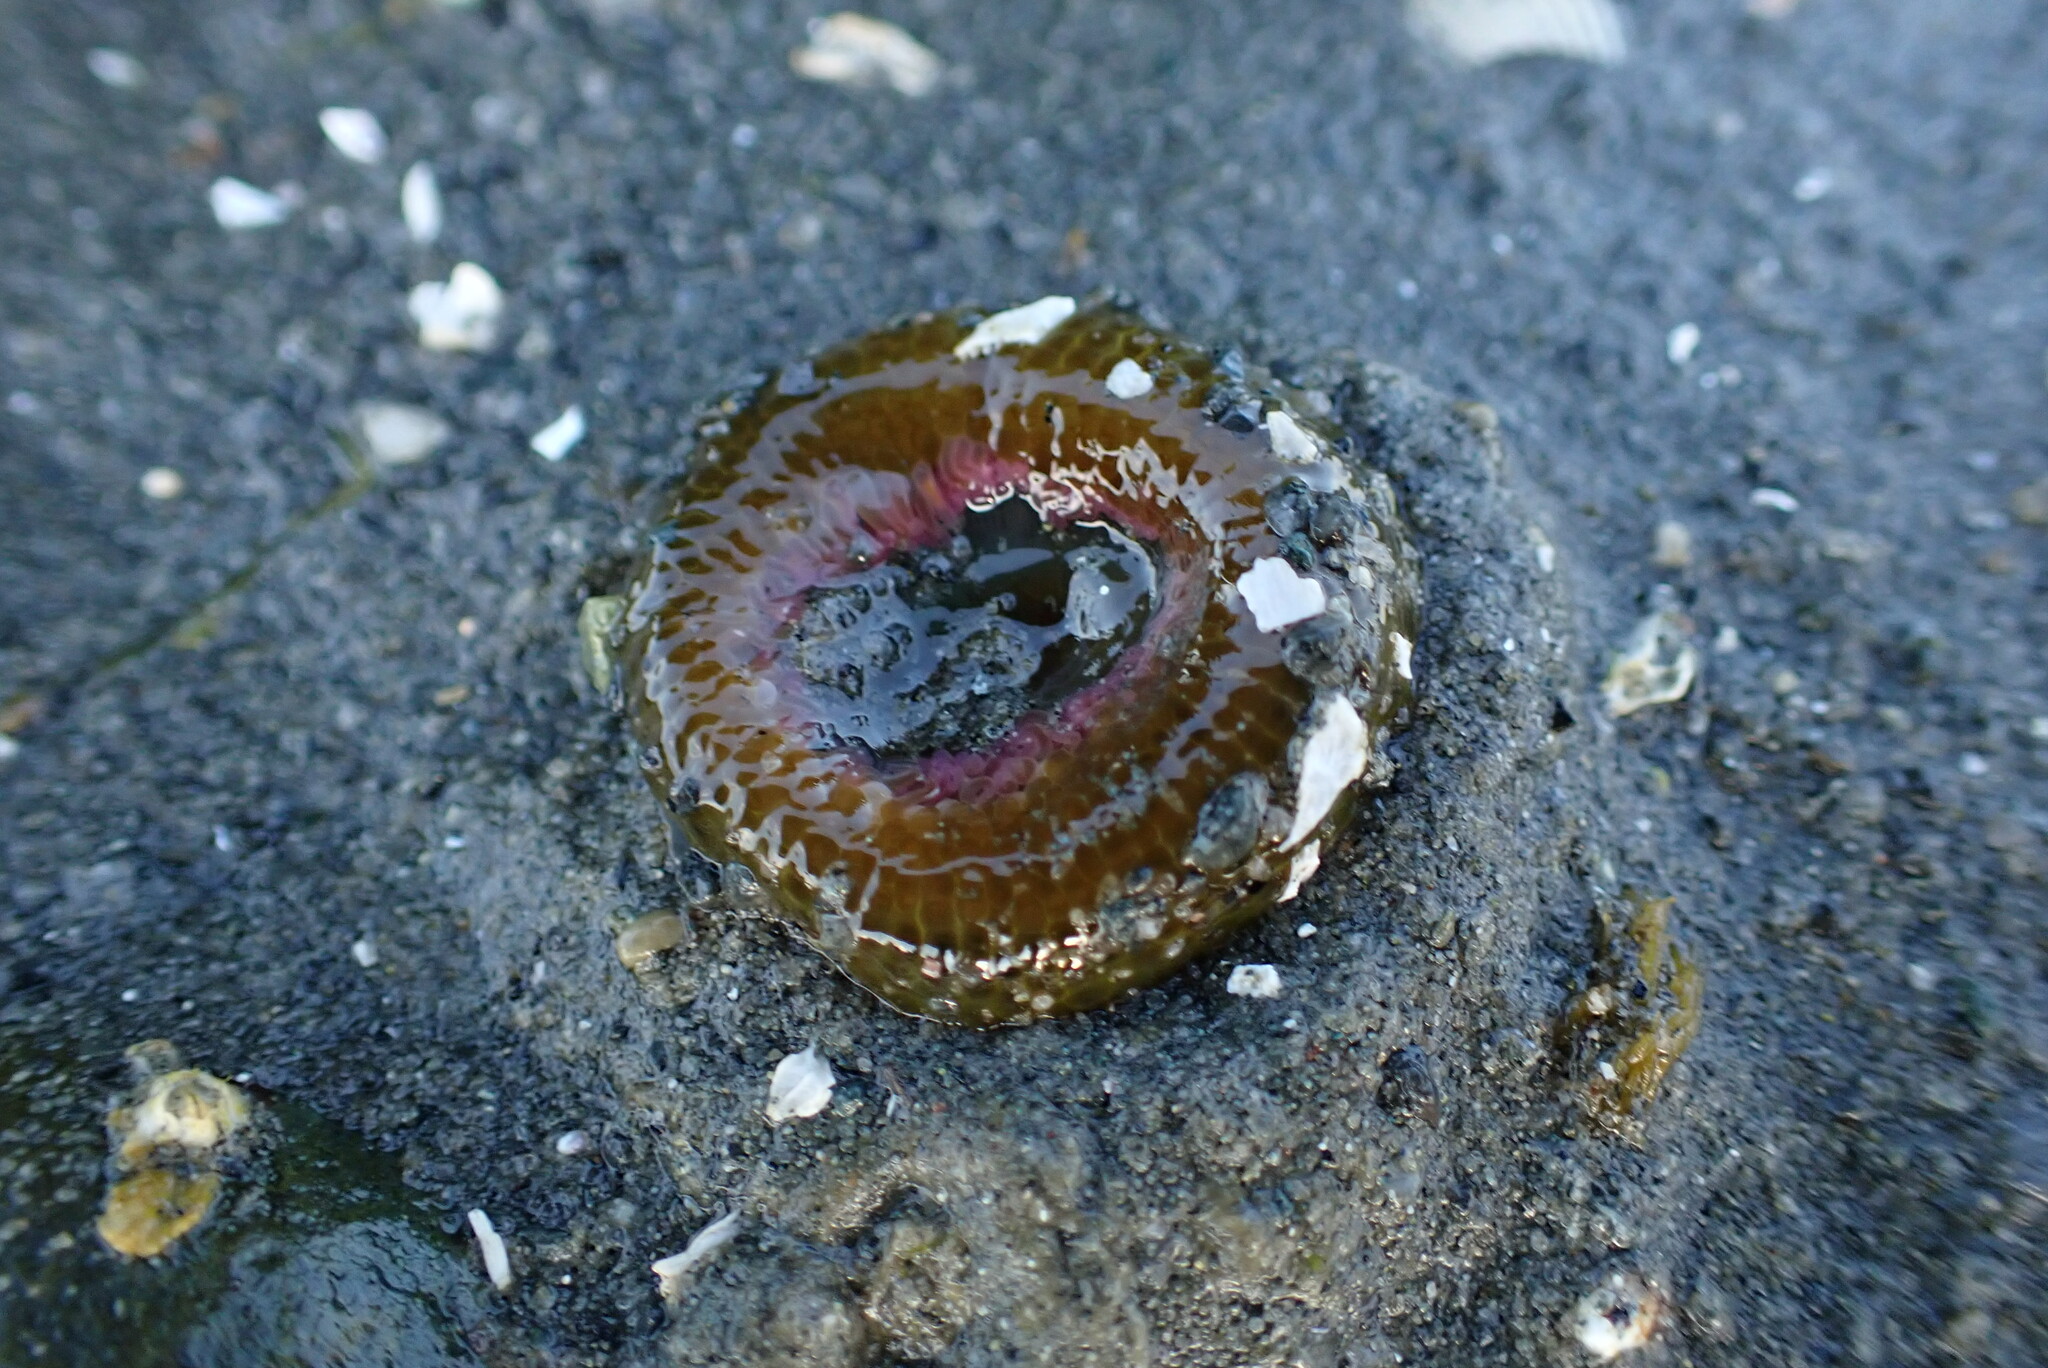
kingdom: Animalia
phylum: Cnidaria
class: Anthozoa
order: Actiniaria
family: Actiniidae
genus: Anthopleura
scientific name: Anthopleura elegantissima
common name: Clonal anemone
